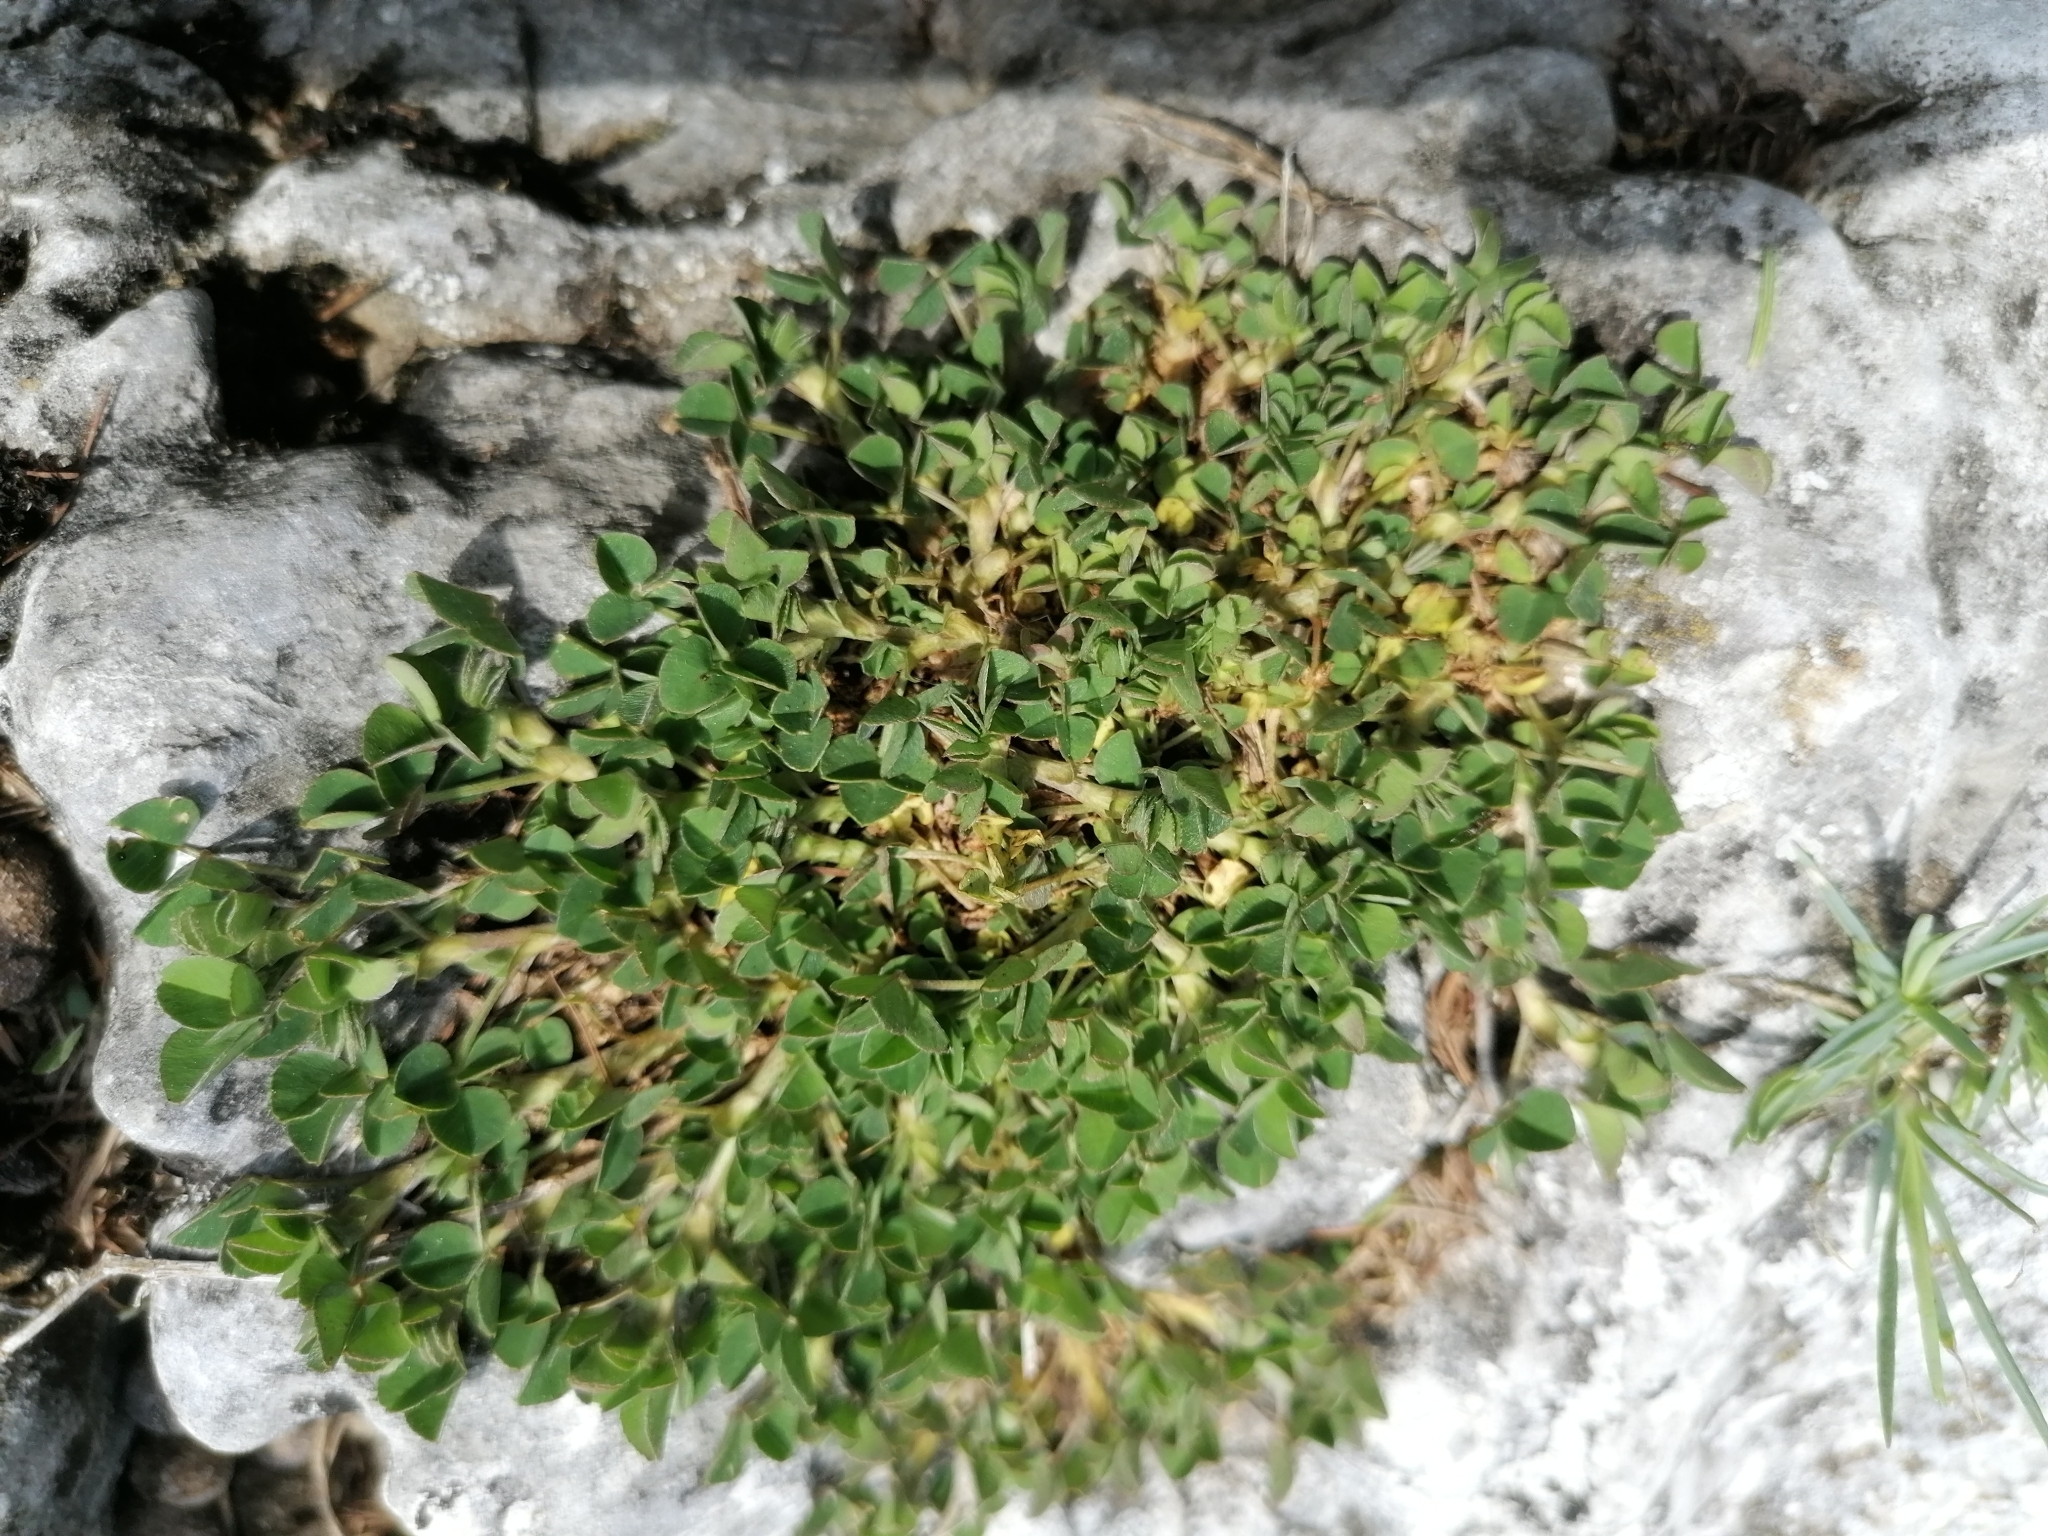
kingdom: Plantae
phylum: Tracheophyta
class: Magnoliopsida
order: Fabales
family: Fabaceae
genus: Medicago
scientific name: Medicago lupulina
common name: Black medick
